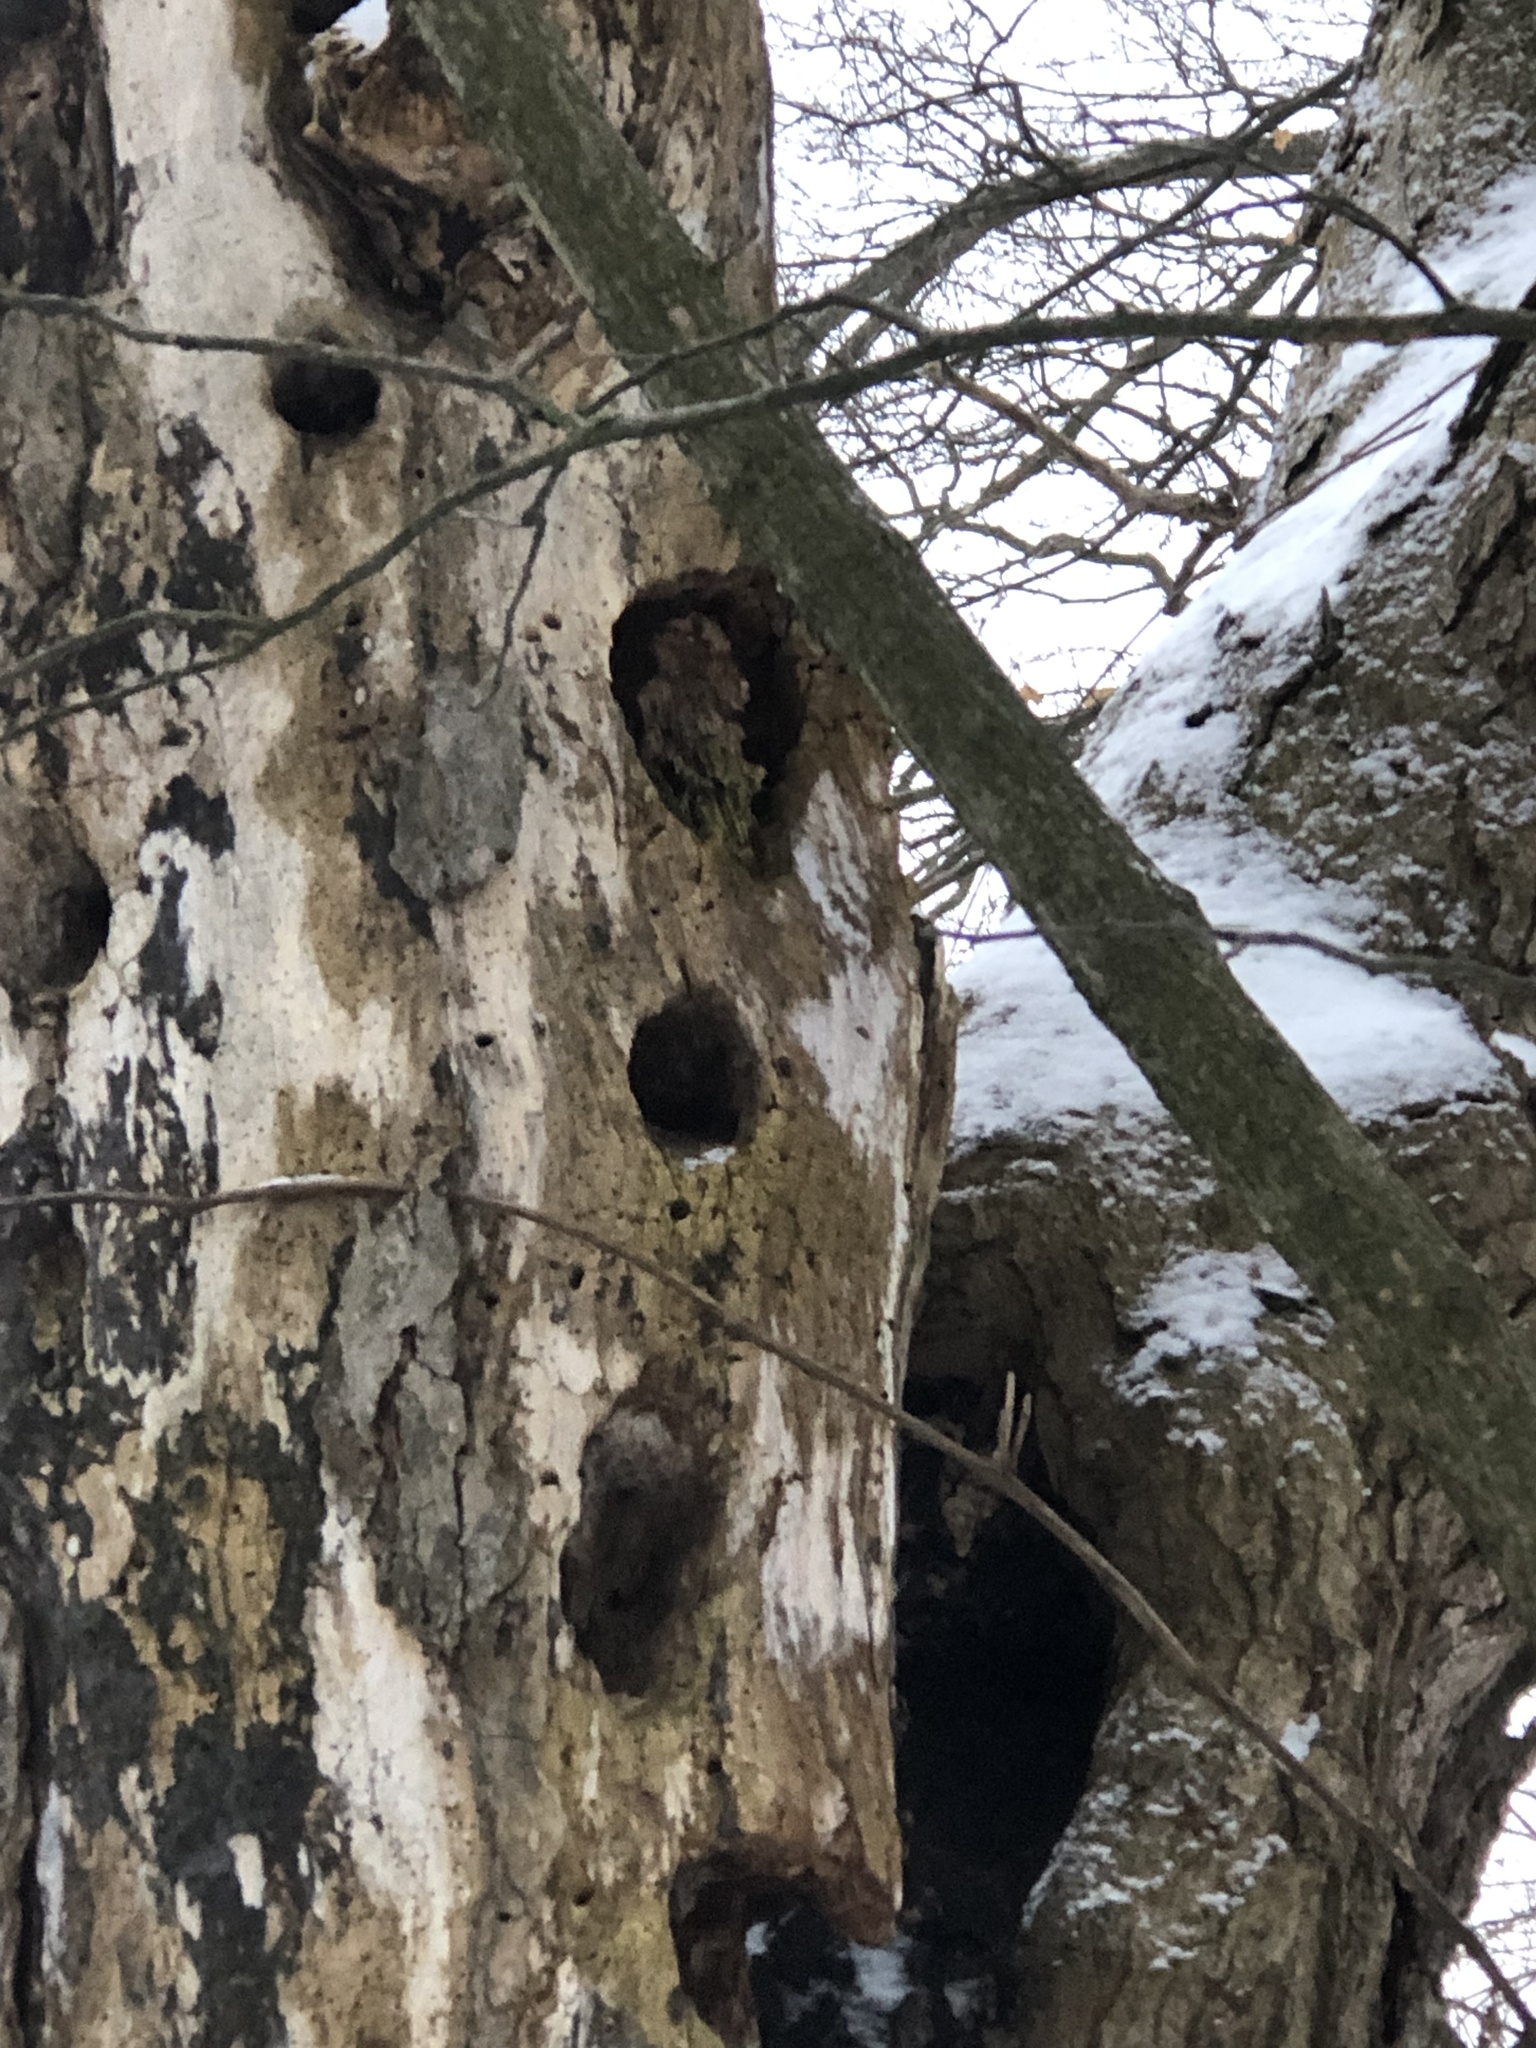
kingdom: Animalia
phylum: Chordata
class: Aves
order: Piciformes
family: Picidae
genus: Dryocopus
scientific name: Dryocopus pileatus
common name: Pileated woodpecker
